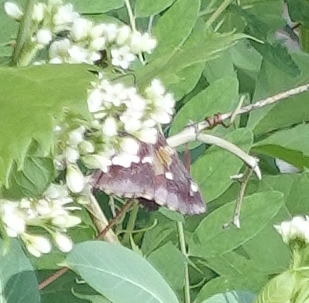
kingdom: Animalia
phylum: Arthropoda
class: Insecta
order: Lepidoptera
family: Hesperiidae
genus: Epargyreus
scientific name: Epargyreus clarus
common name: Silver-spotted skipper
